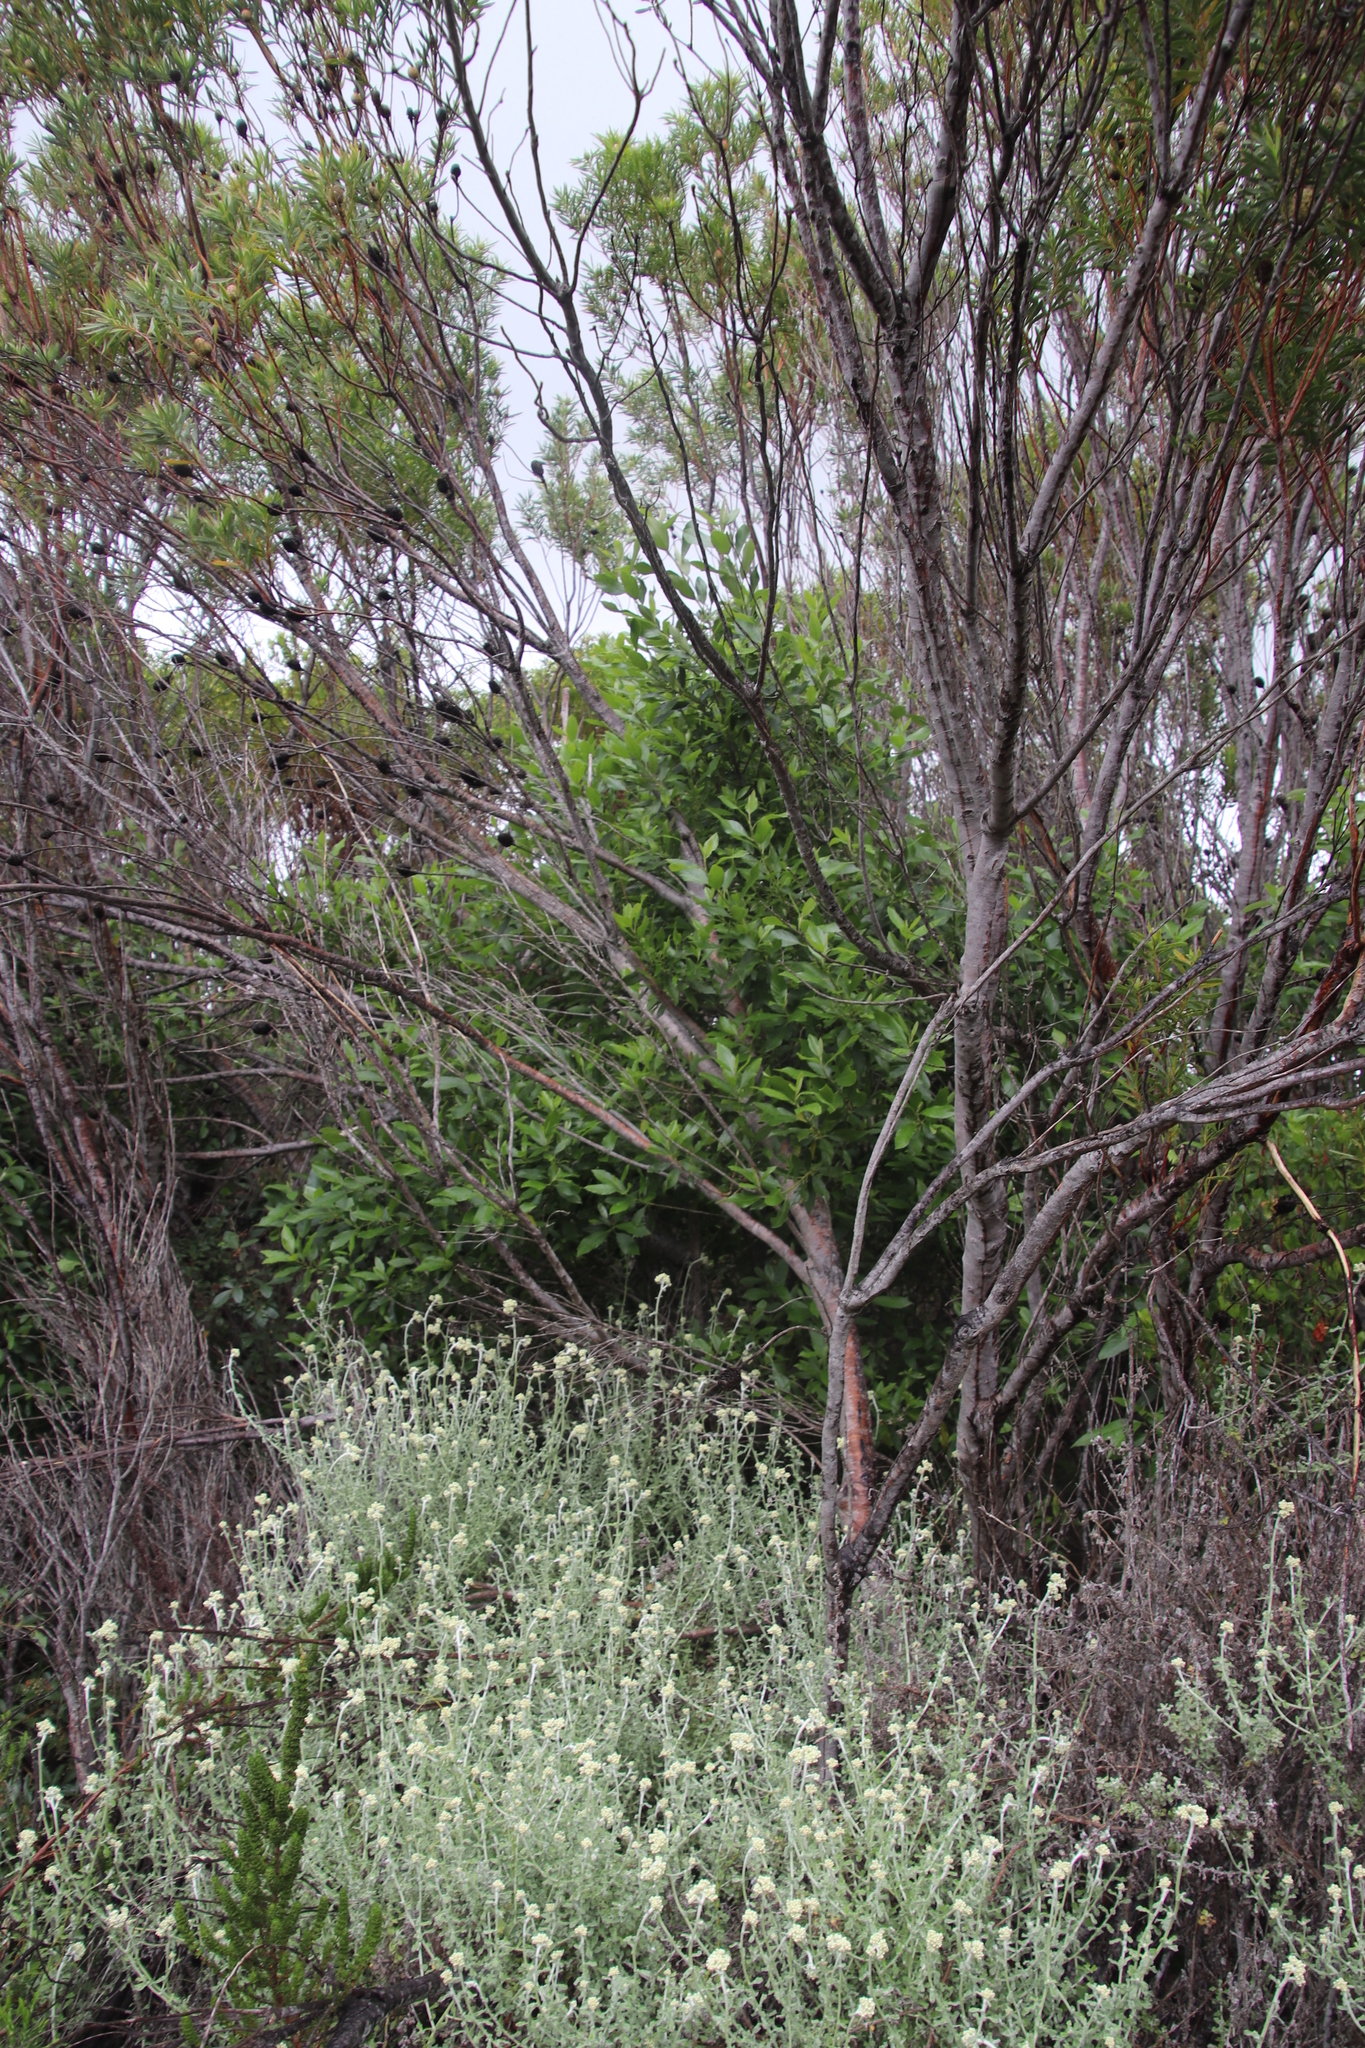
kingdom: Plantae
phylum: Tracheophyta
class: Magnoliopsida
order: Malpighiales
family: Achariaceae
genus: Kiggelaria
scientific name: Kiggelaria africana
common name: Wild peach
